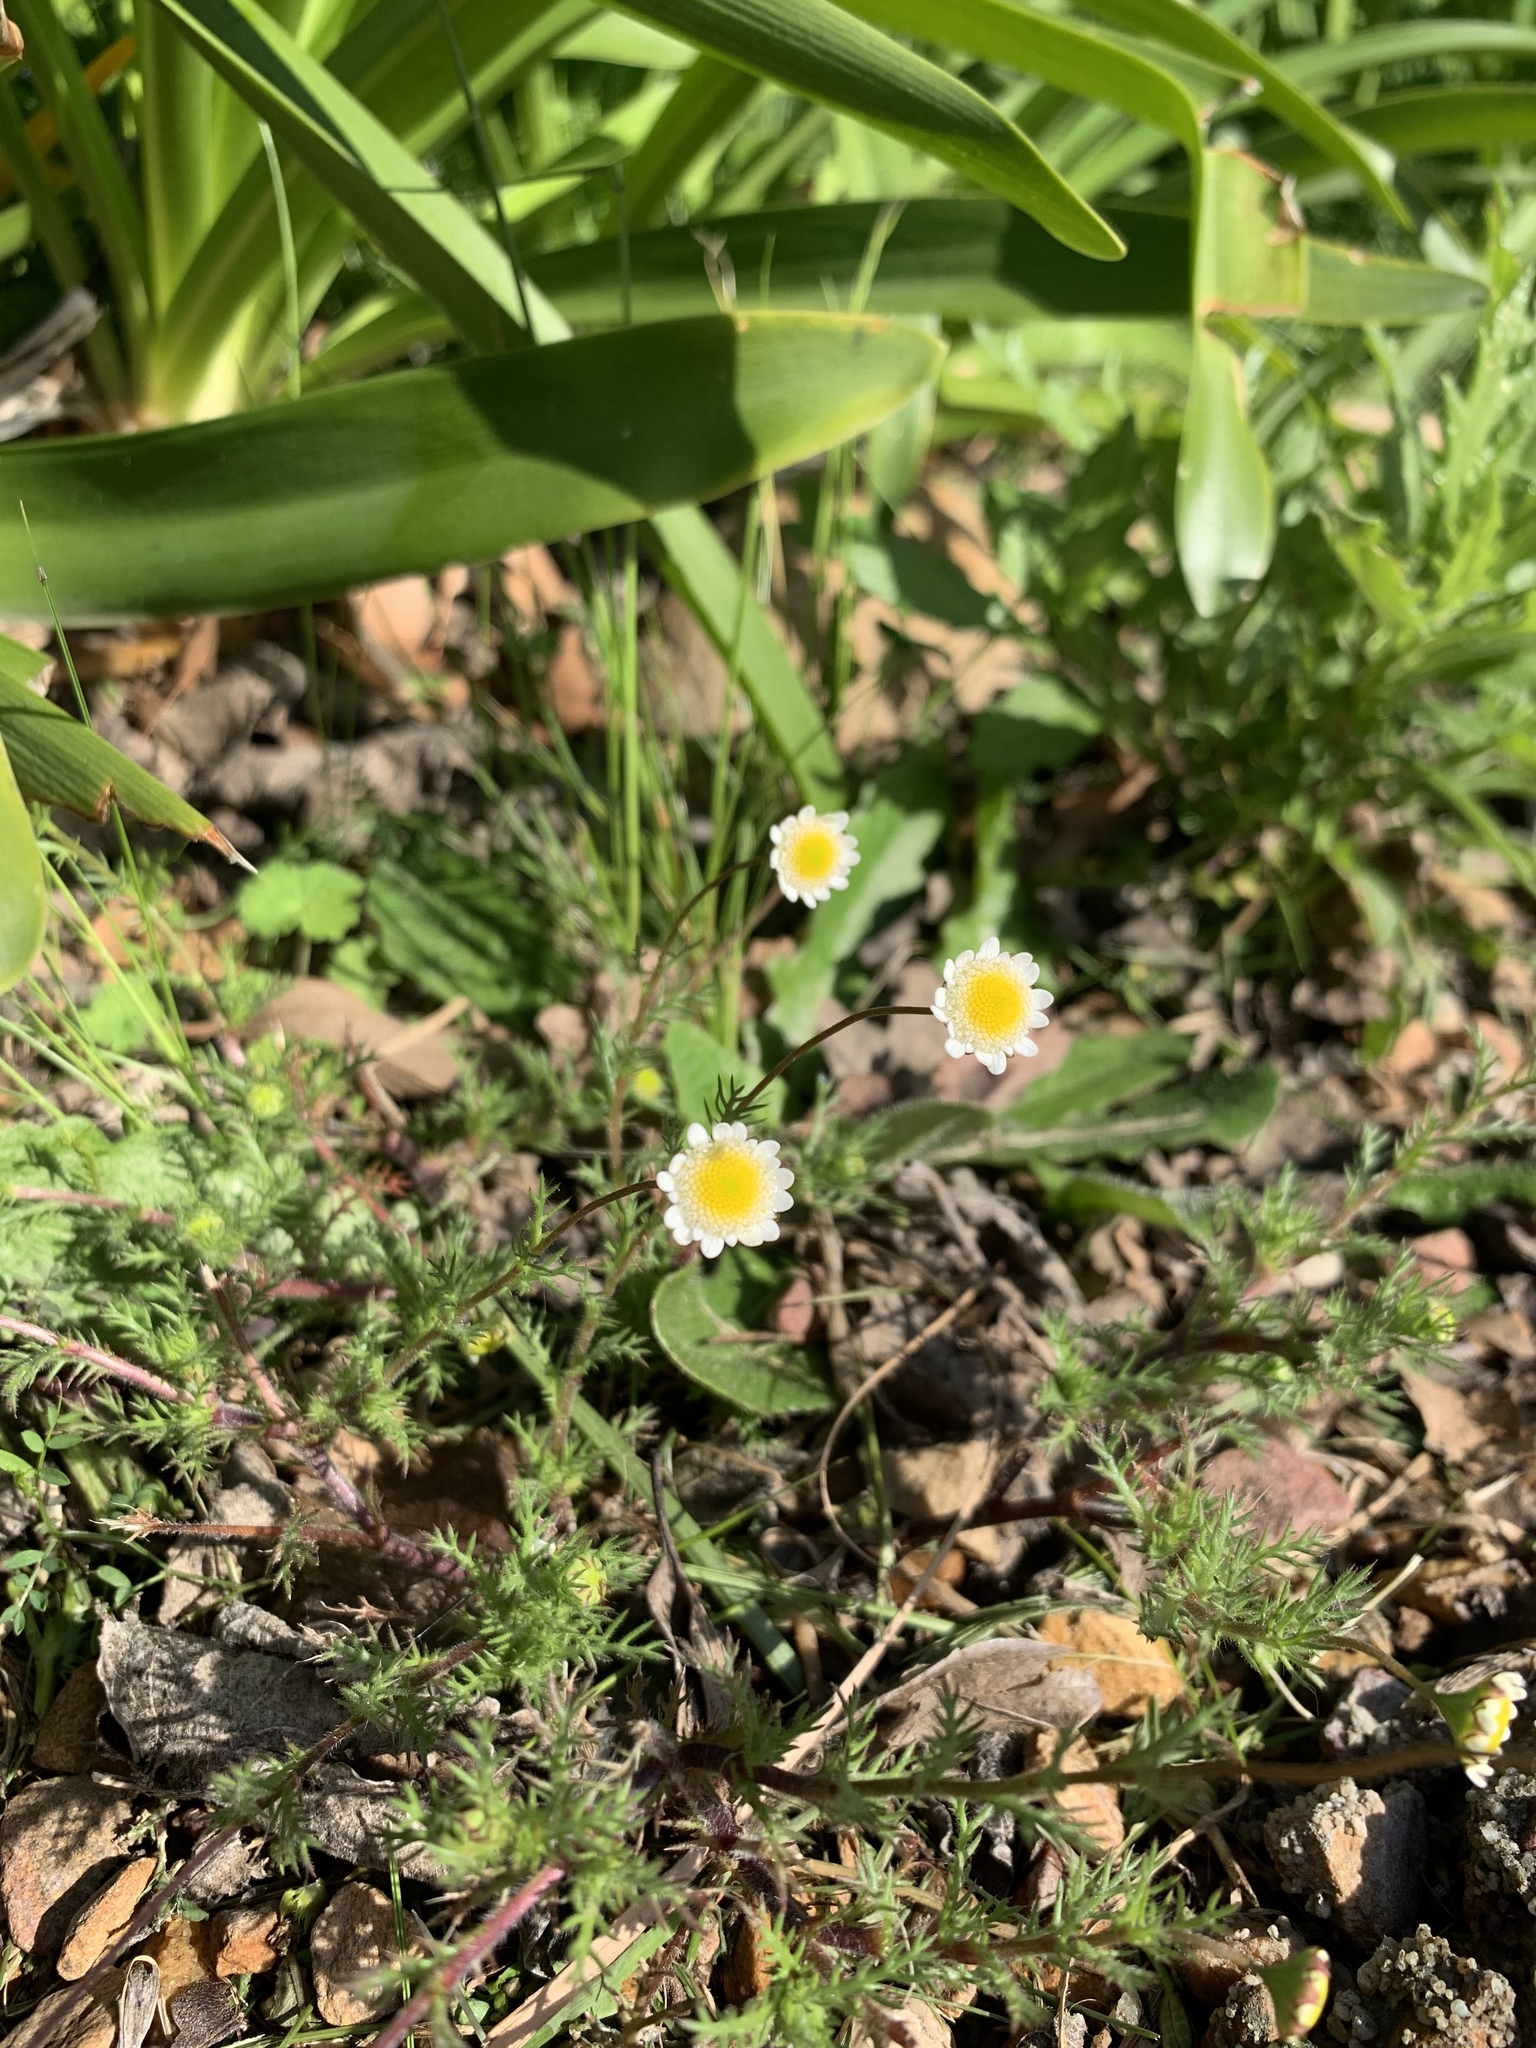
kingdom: Plantae
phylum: Tracheophyta
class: Magnoliopsida
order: Asterales
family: Asteraceae
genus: Cotula
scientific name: Cotula turbinata
